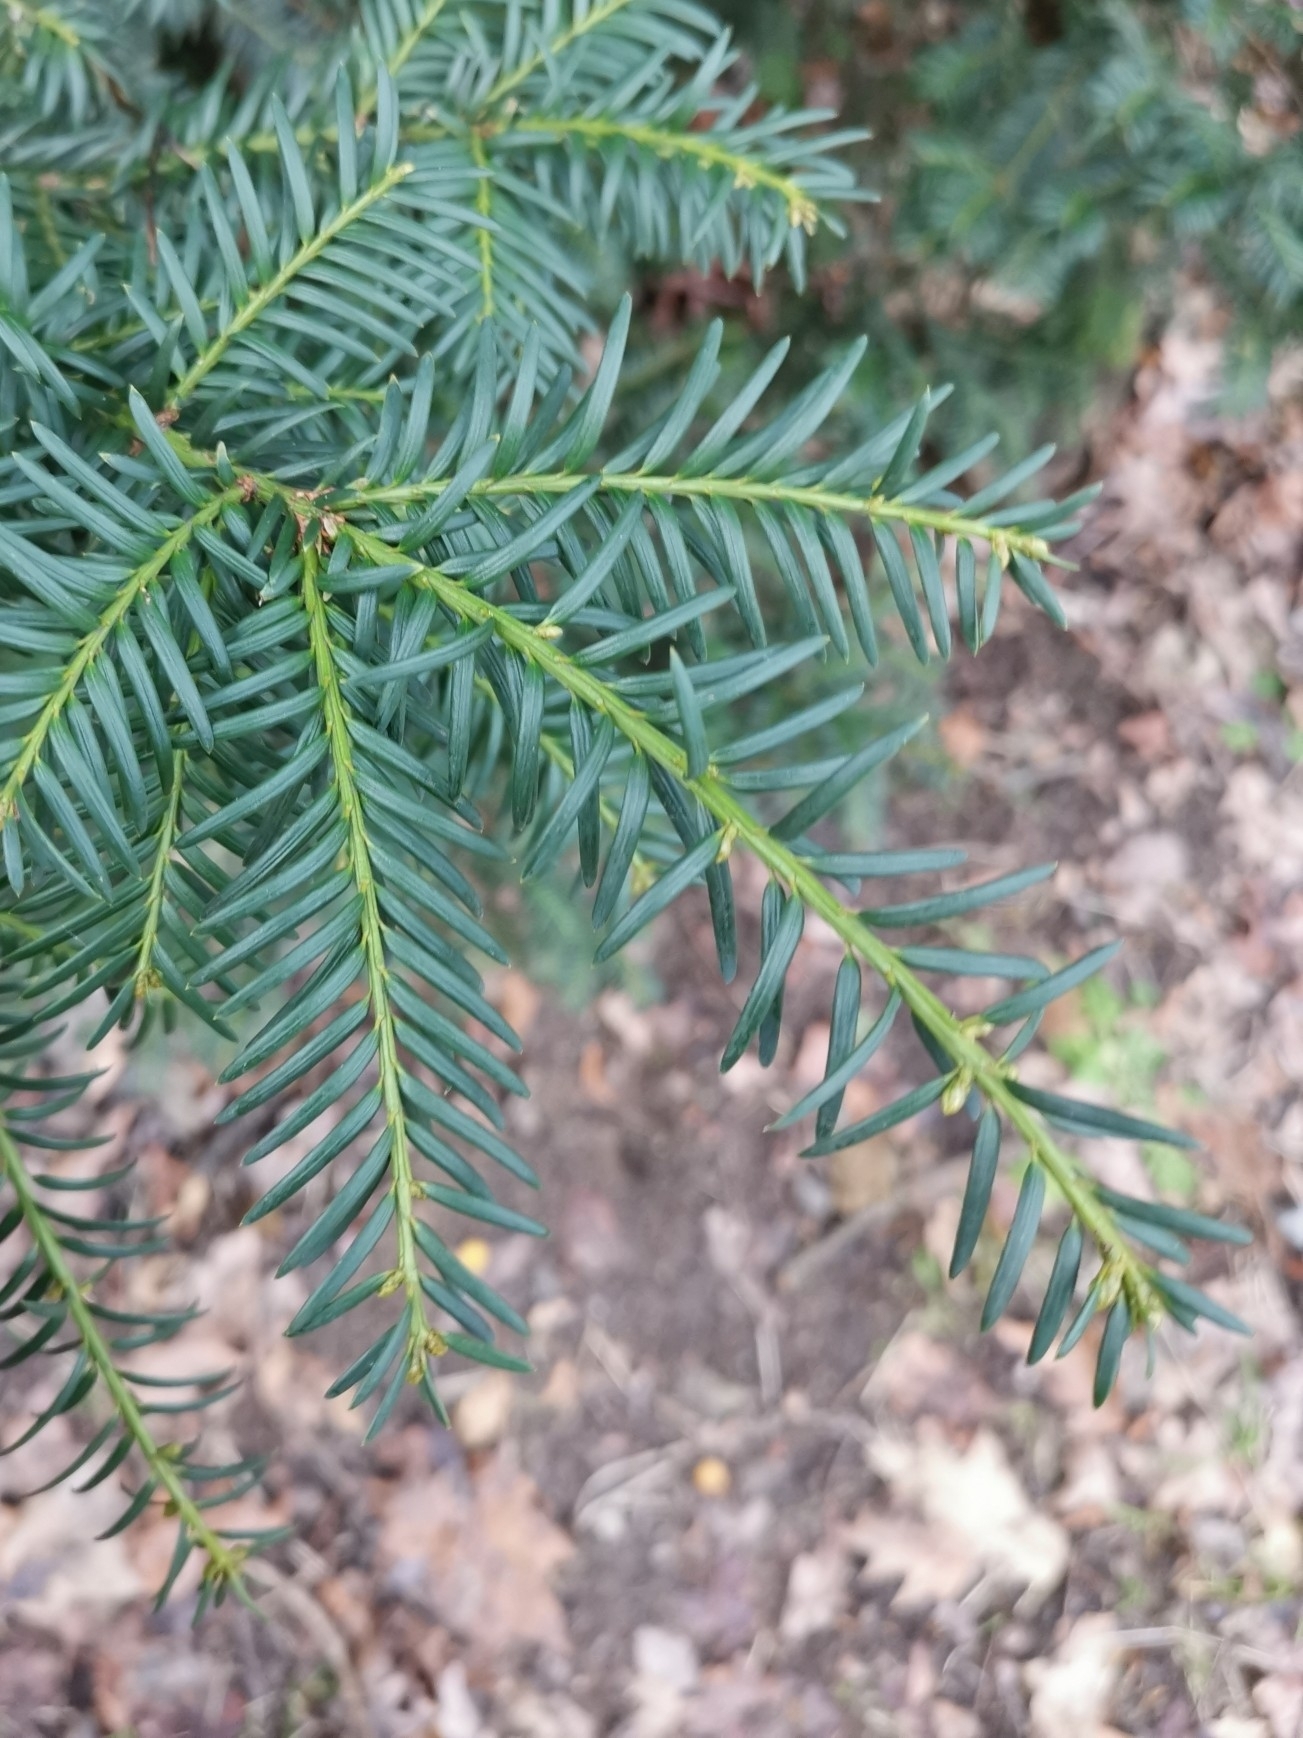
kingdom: Plantae
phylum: Tracheophyta
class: Pinopsida
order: Pinales
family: Taxaceae
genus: Taxus
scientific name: Taxus baccata
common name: Yew
